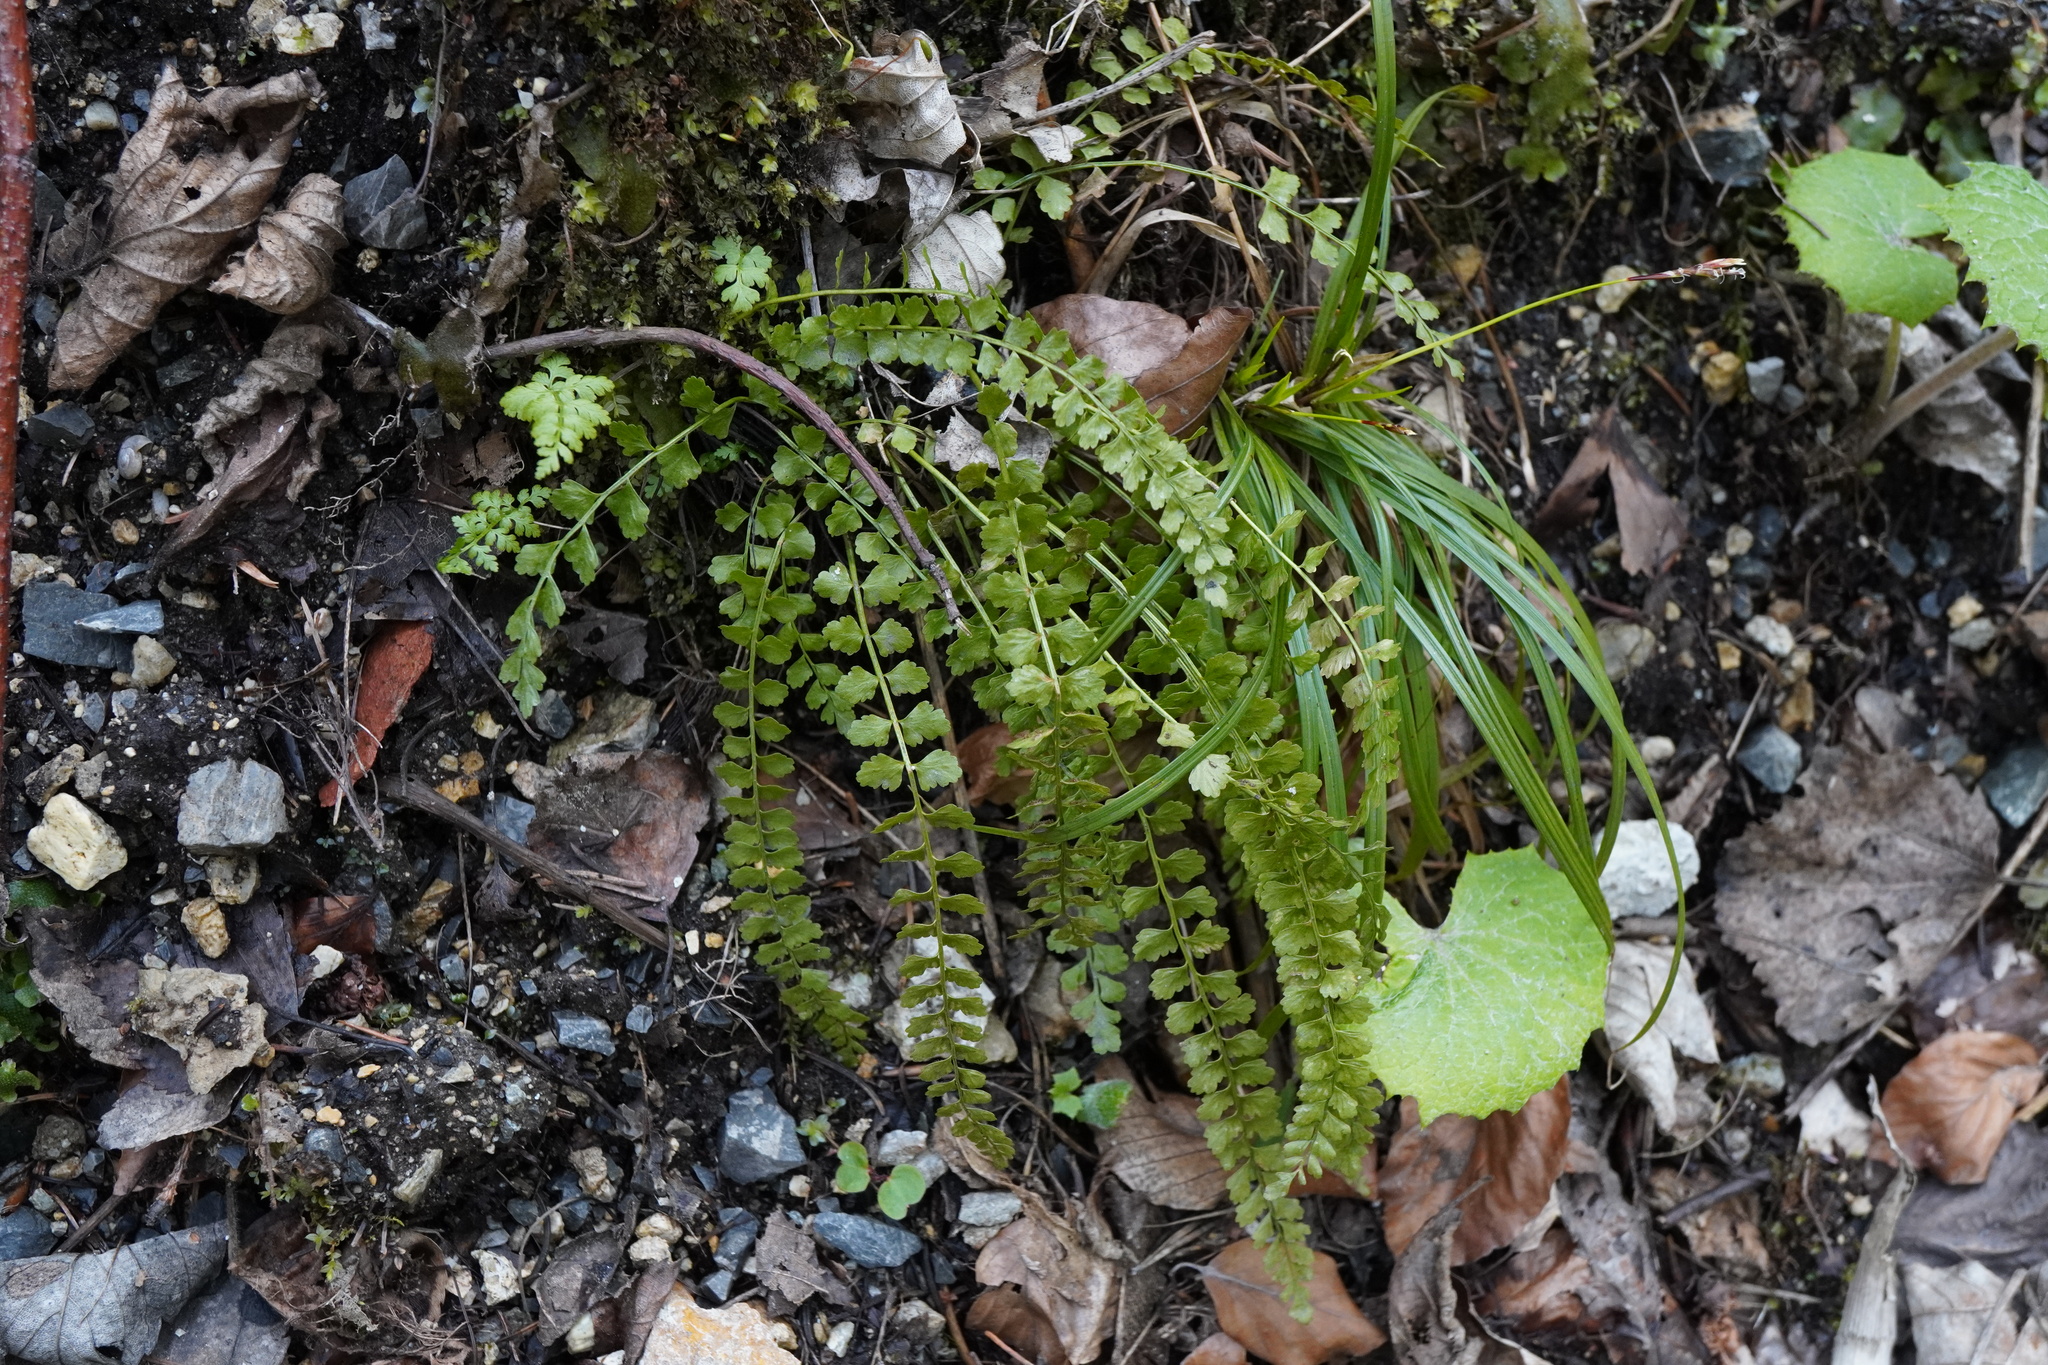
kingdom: Plantae
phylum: Tracheophyta
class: Polypodiopsida
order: Polypodiales
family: Aspleniaceae
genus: Asplenium
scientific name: Asplenium viride
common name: Green spleenwort
